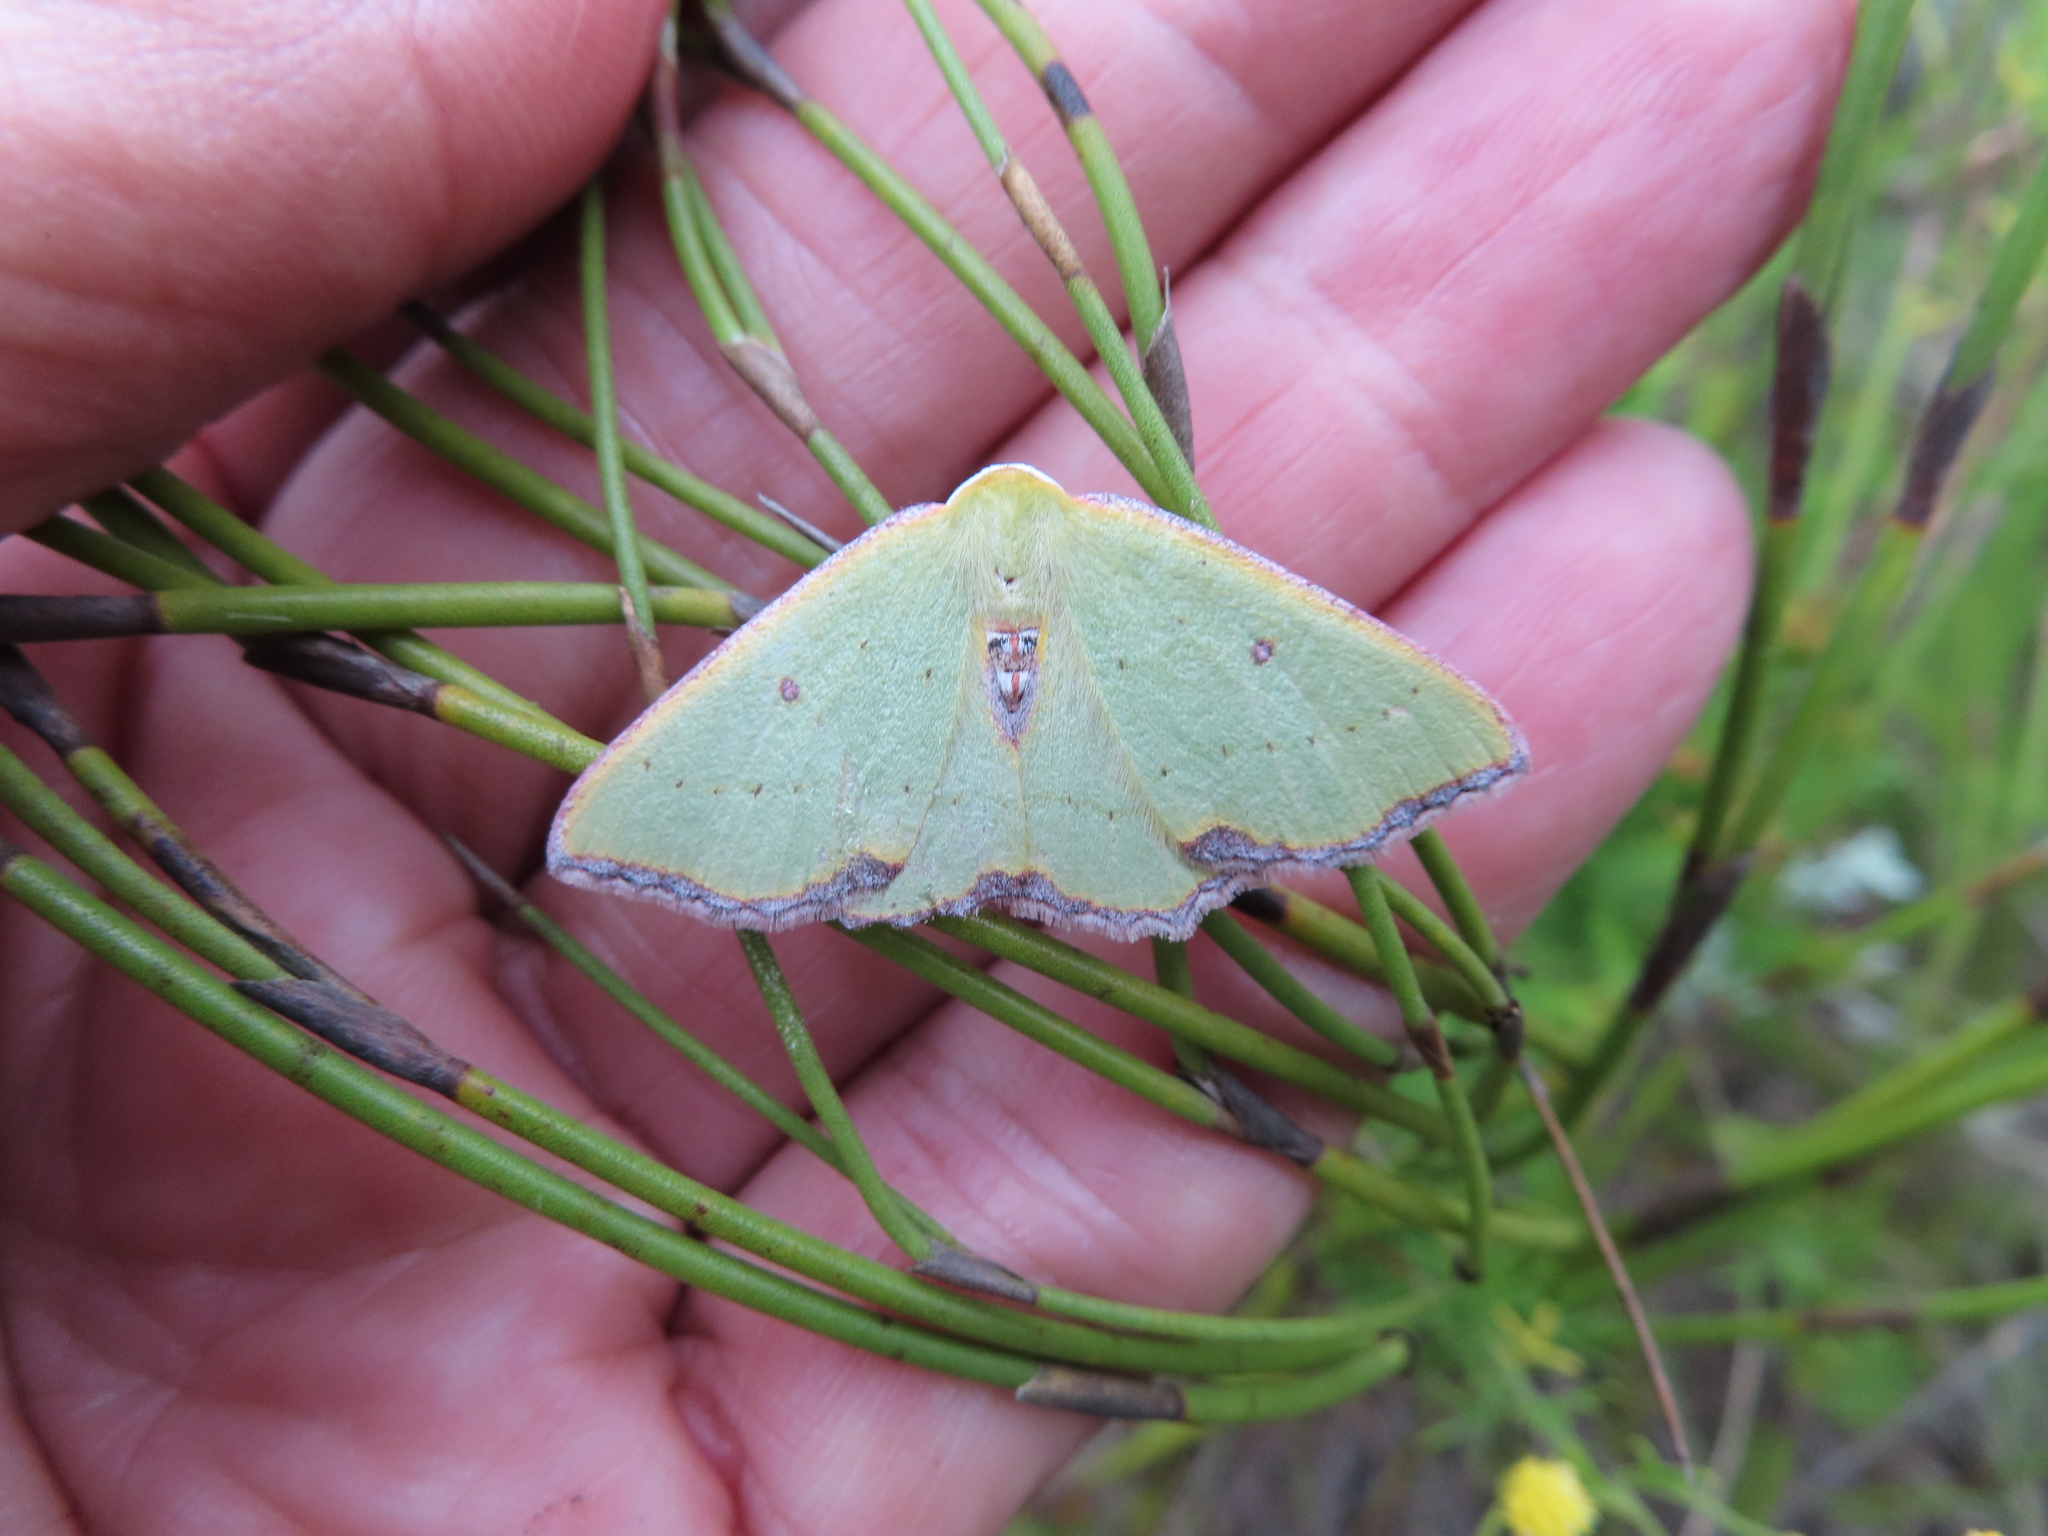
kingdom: Animalia
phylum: Arthropoda
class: Insecta
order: Lepidoptera
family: Geometridae
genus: Adicocrita
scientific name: Adicocrita discerpta
